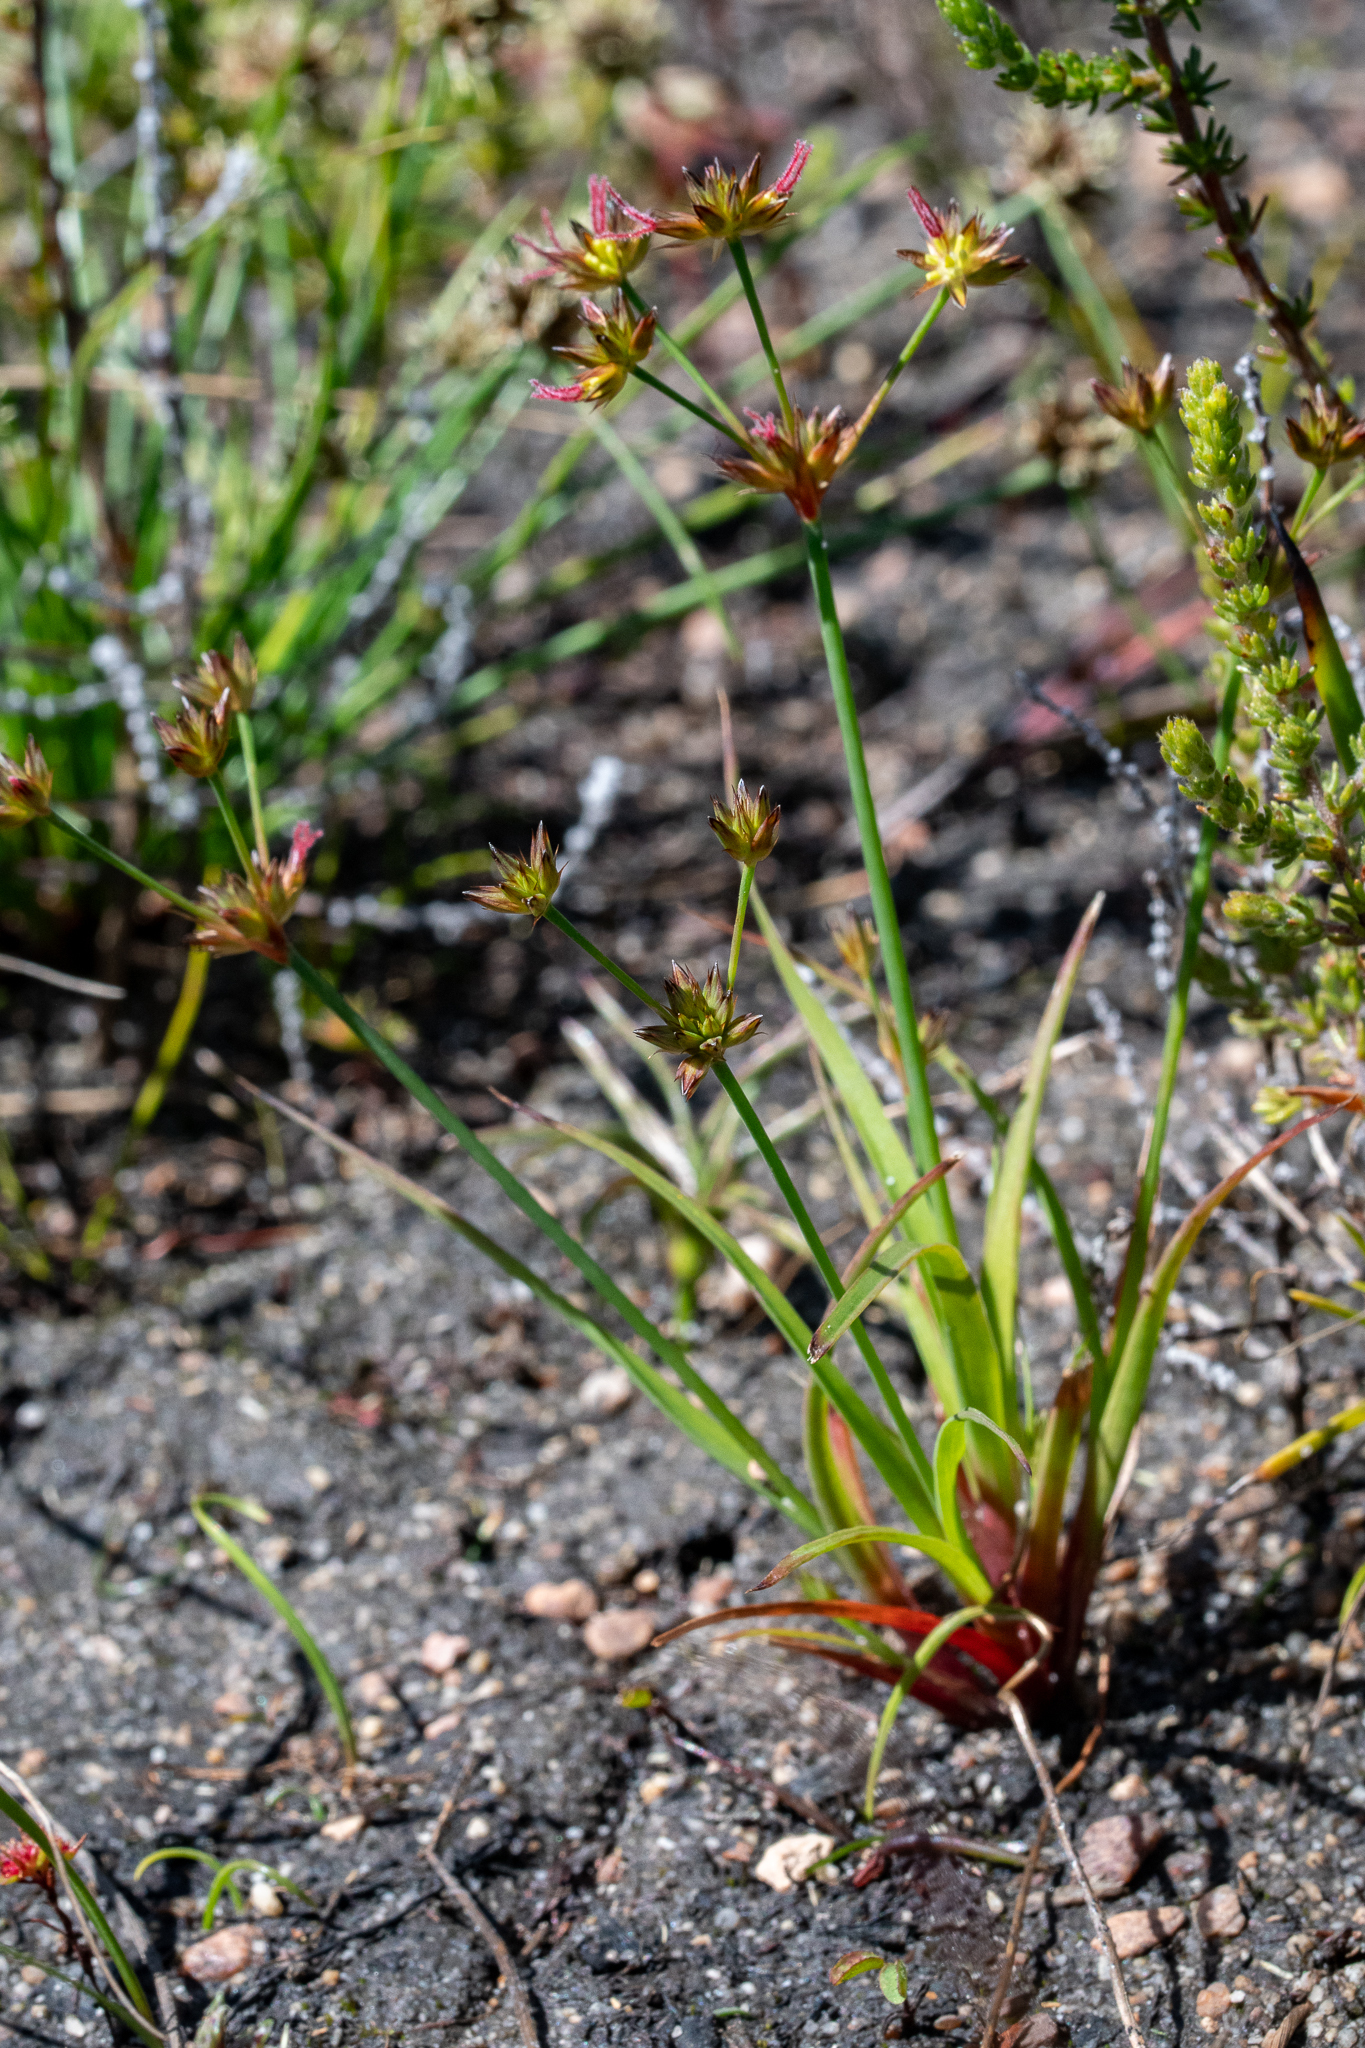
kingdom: Plantae
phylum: Tracheophyta
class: Liliopsida
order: Poales
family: Juncaceae
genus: Juncus
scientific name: Juncus lomatophyllus
